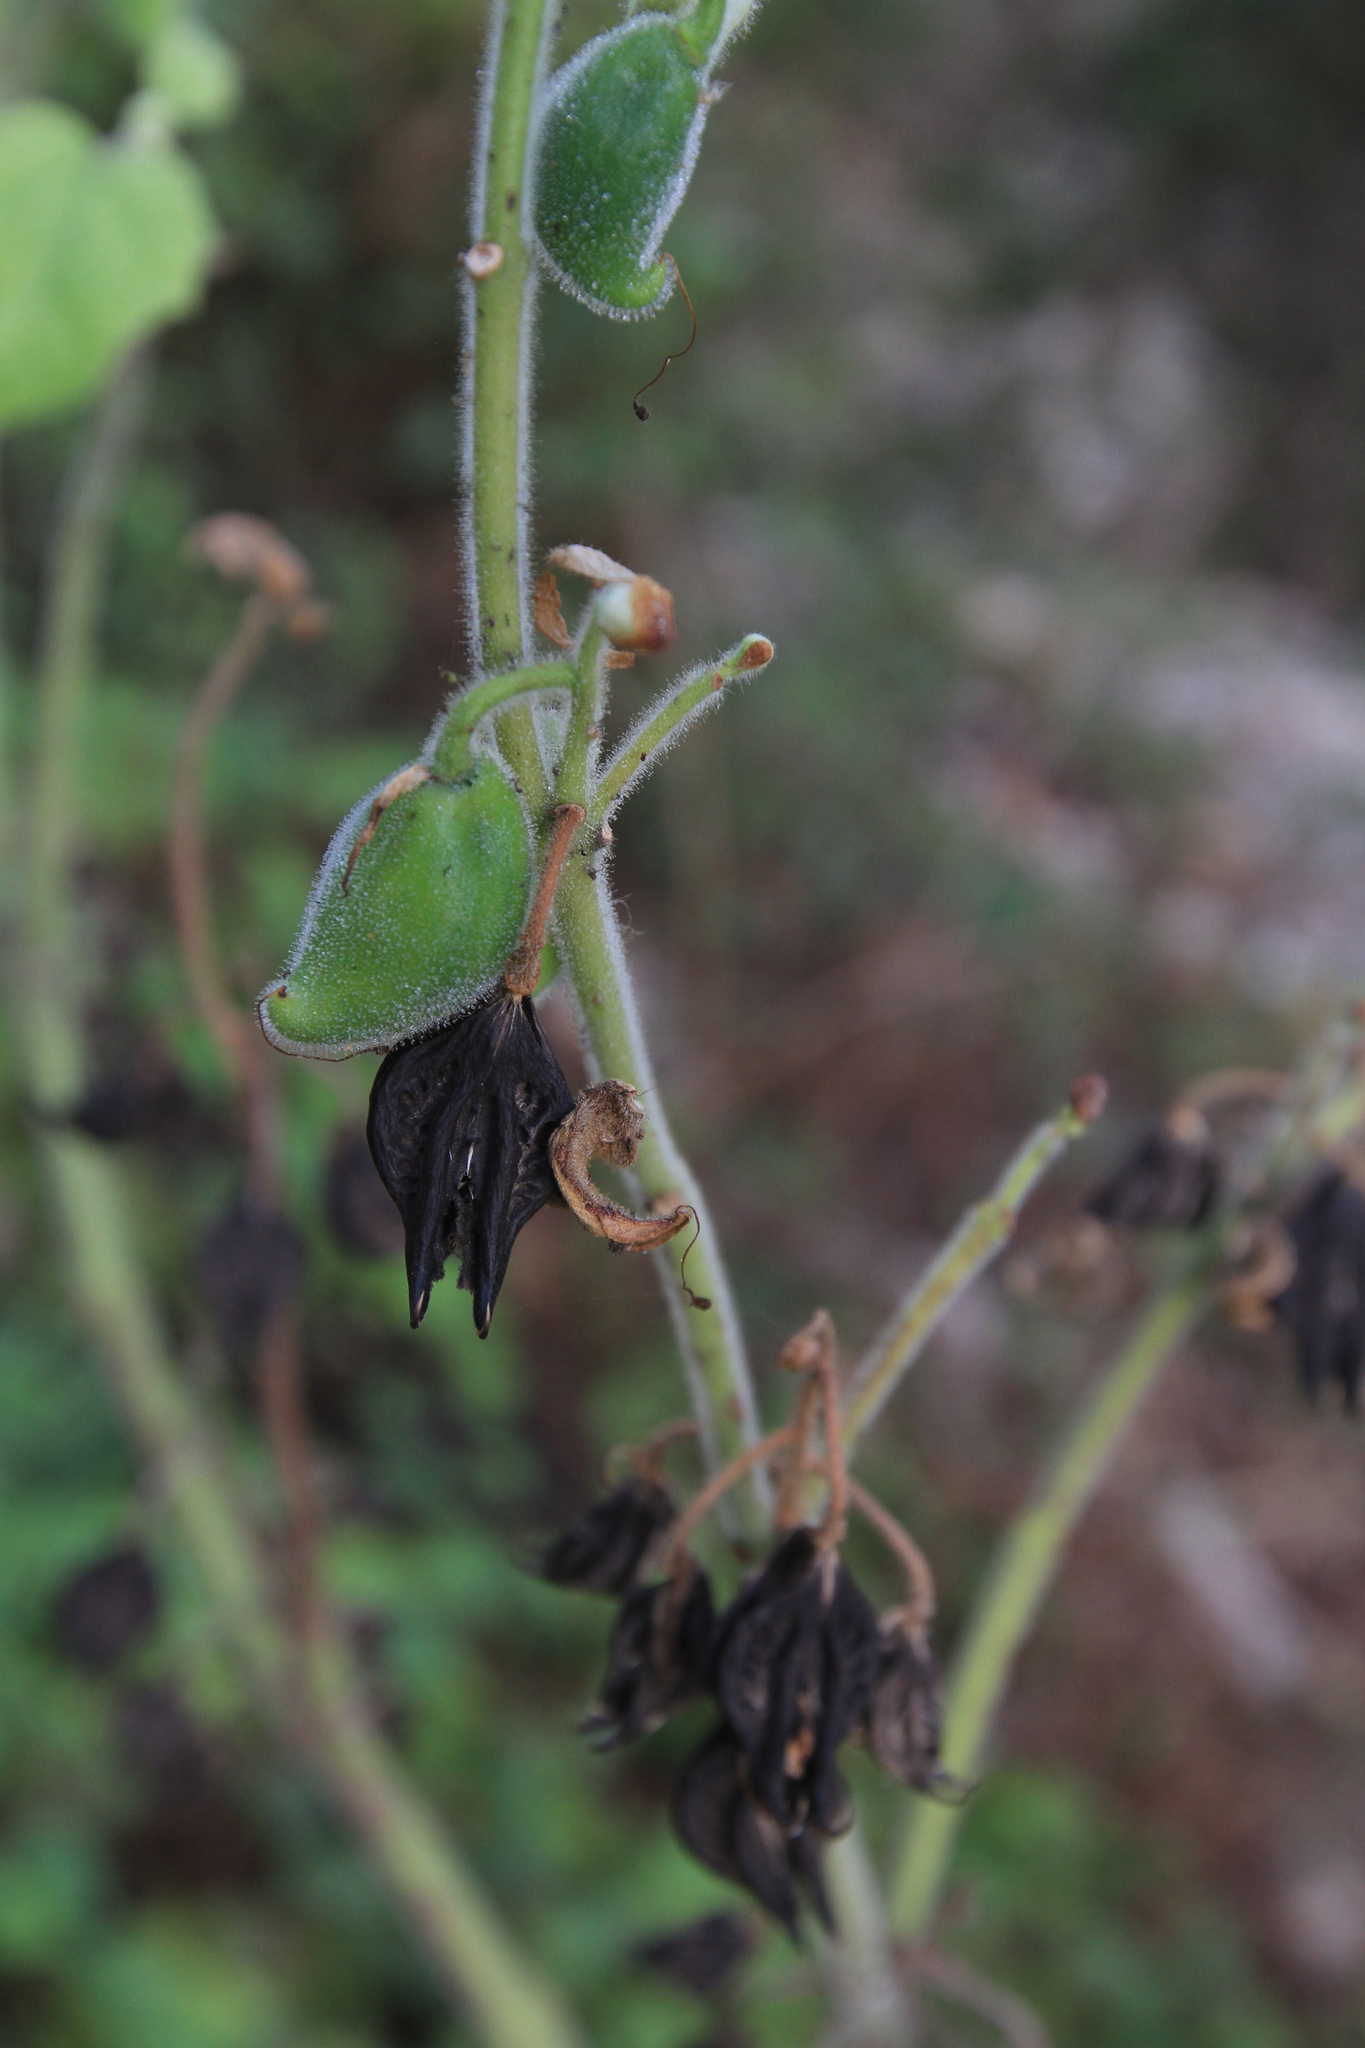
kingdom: Plantae
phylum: Tracheophyta
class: Magnoliopsida
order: Lamiales
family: Martyniaceae
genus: Martynia
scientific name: Martynia annua
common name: Tiger's-claw
